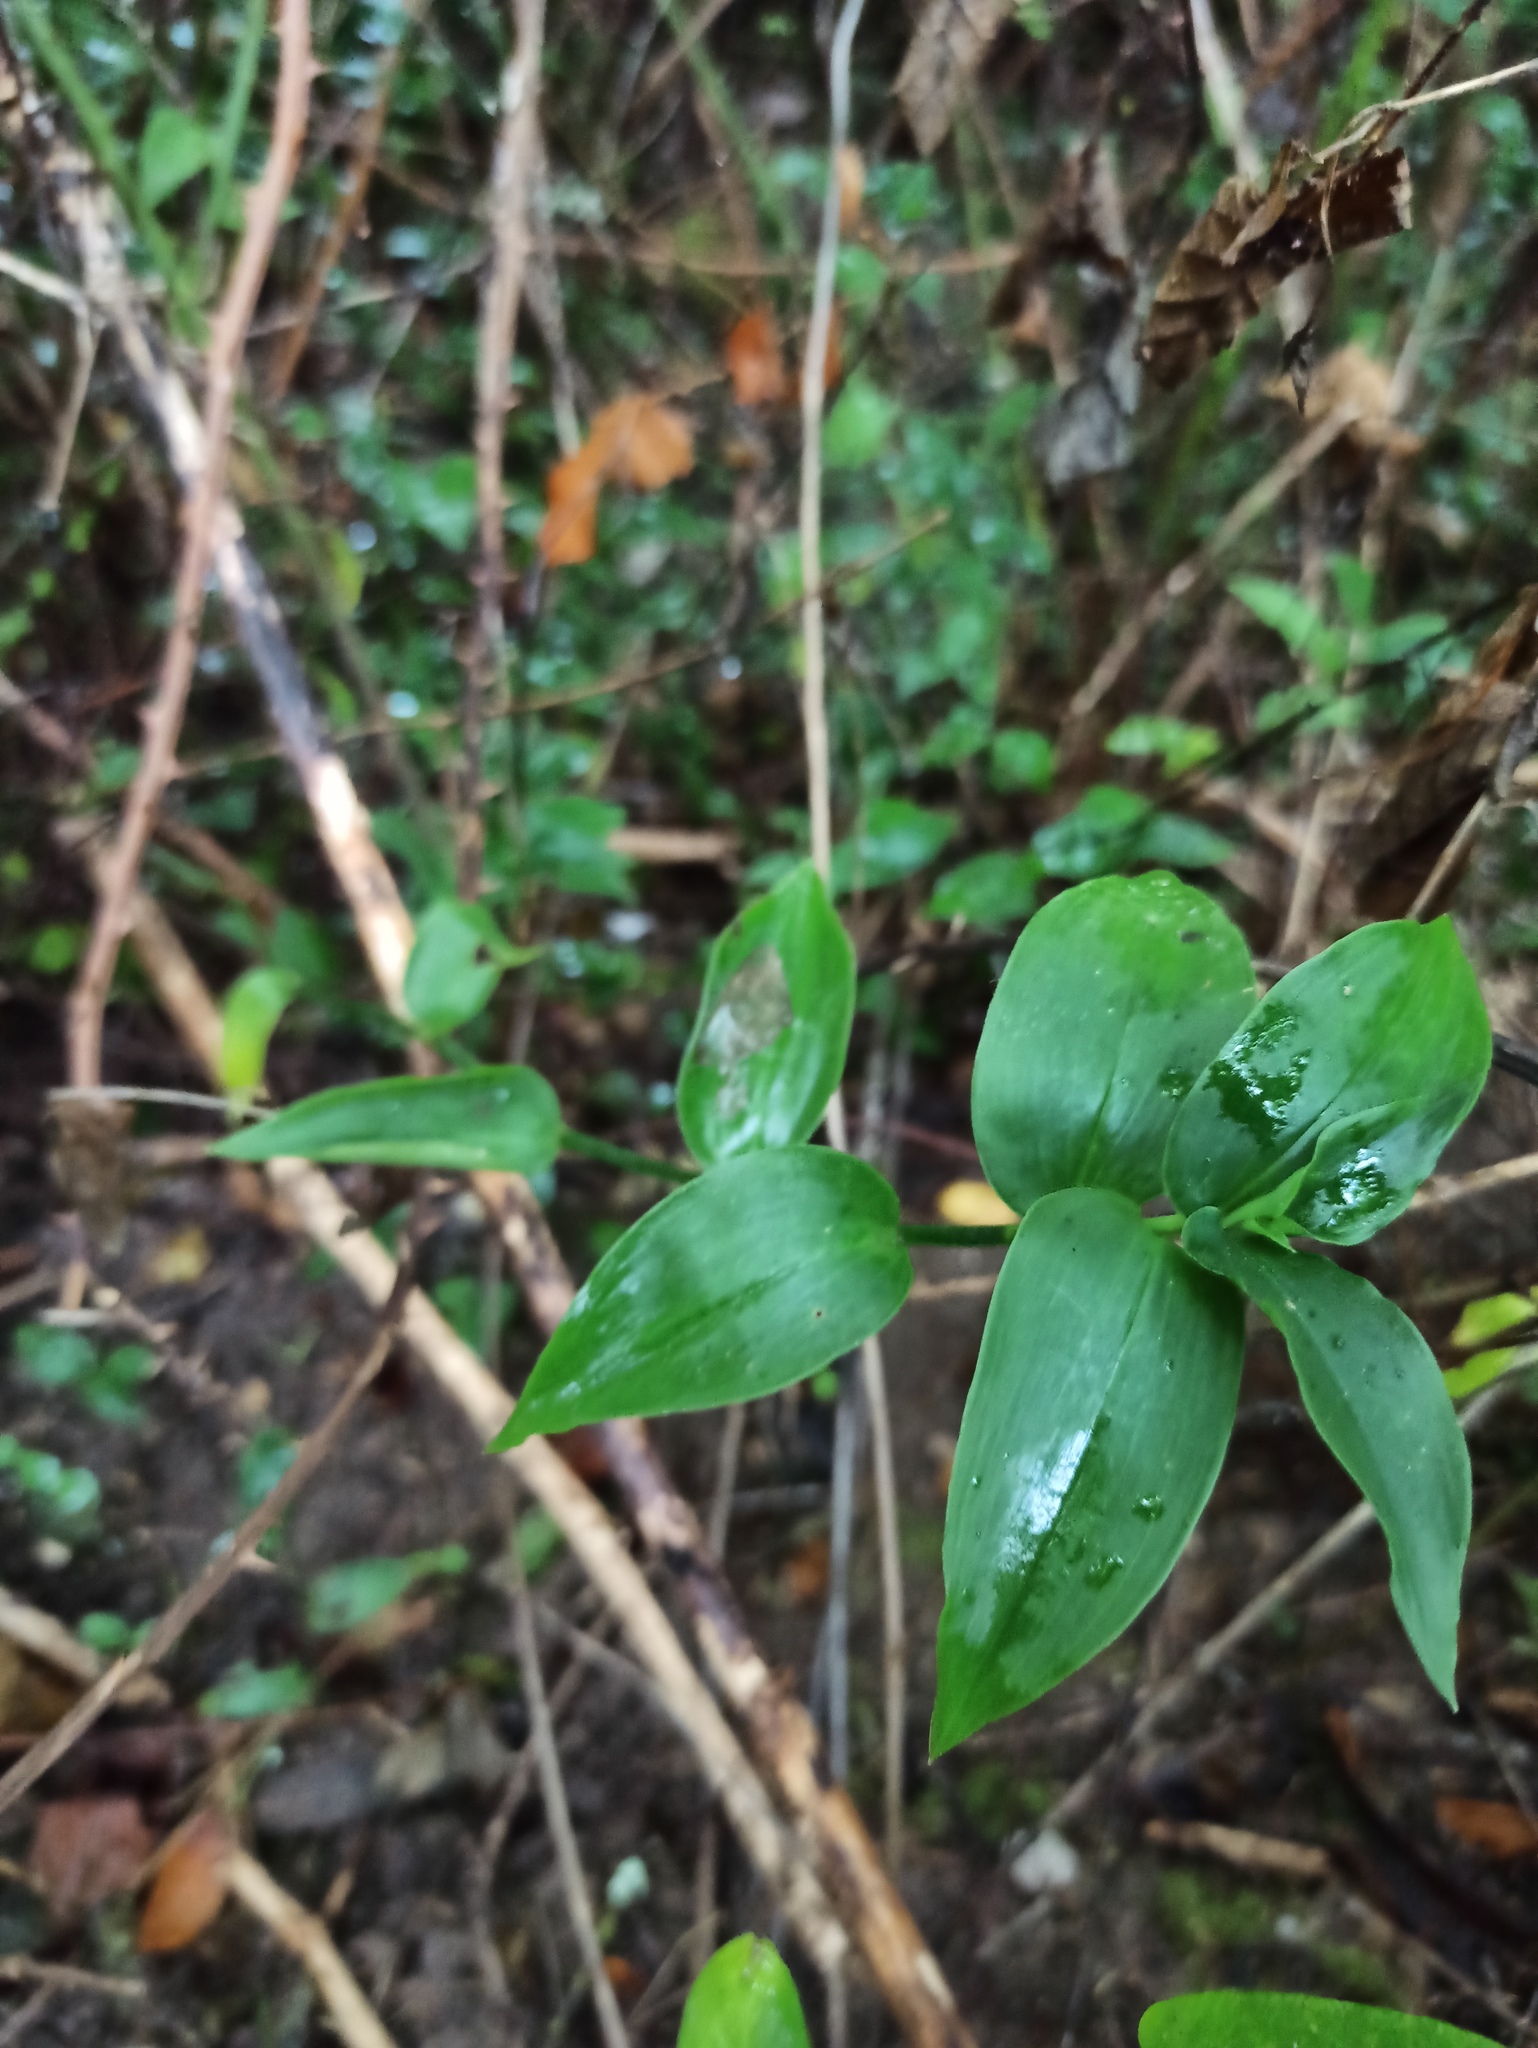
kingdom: Plantae
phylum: Tracheophyta
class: Liliopsida
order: Commelinales
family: Commelinaceae
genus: Tradescantia
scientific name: Tradescantia fluminensis
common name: Wandering-jew
